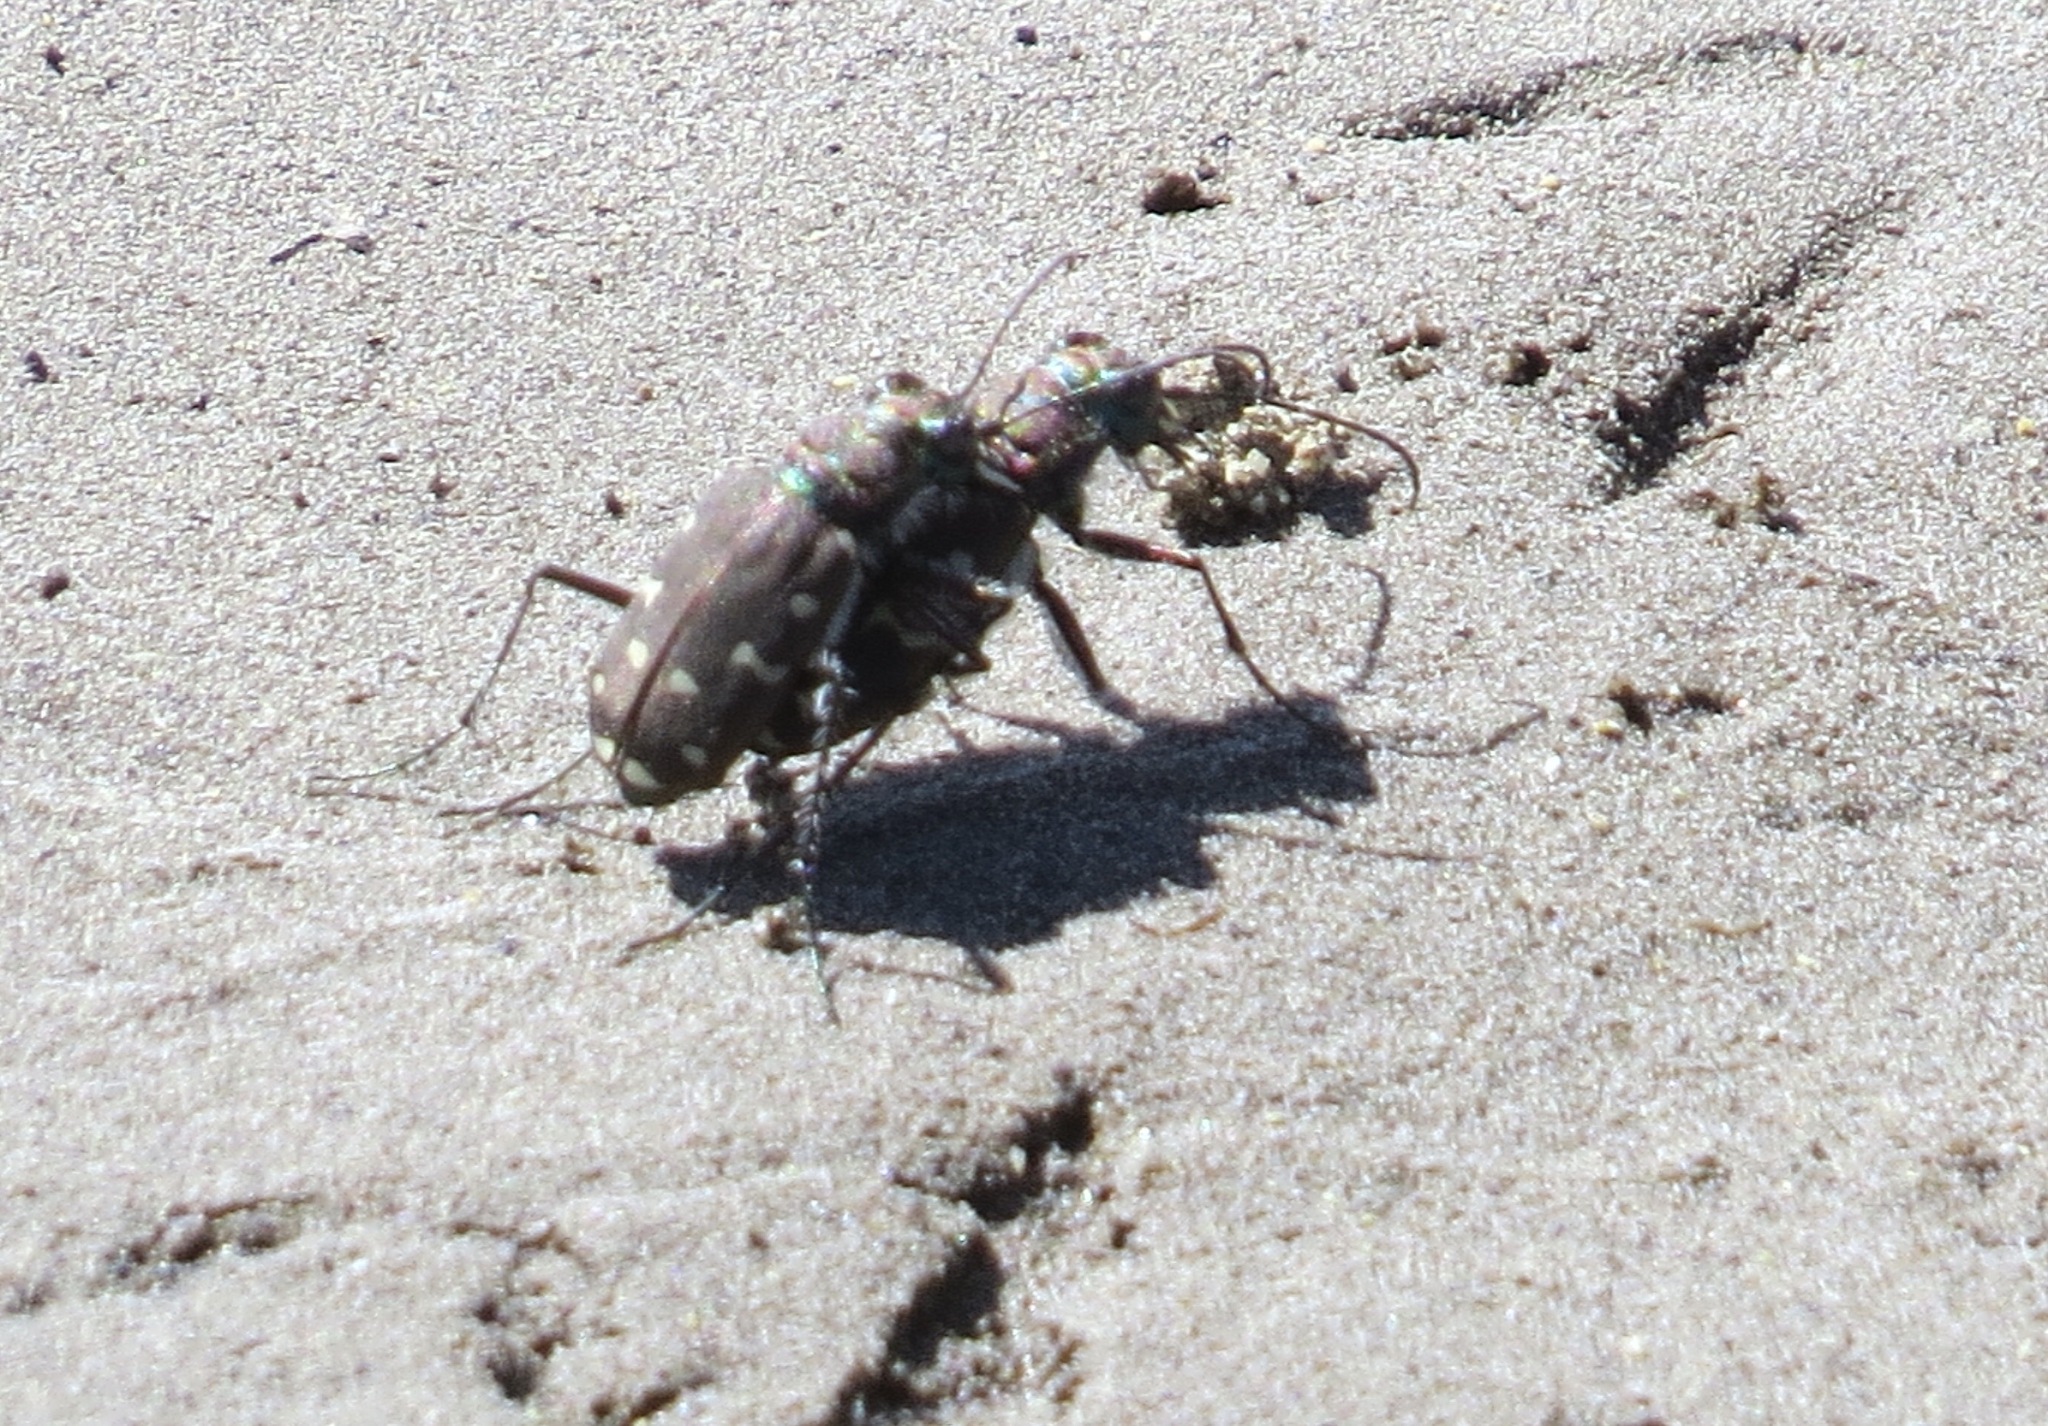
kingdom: Animalia
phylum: Arthropoda
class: Insecta
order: Coleoptera
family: Carabidae
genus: Cicindela
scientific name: Cicindela oregona
